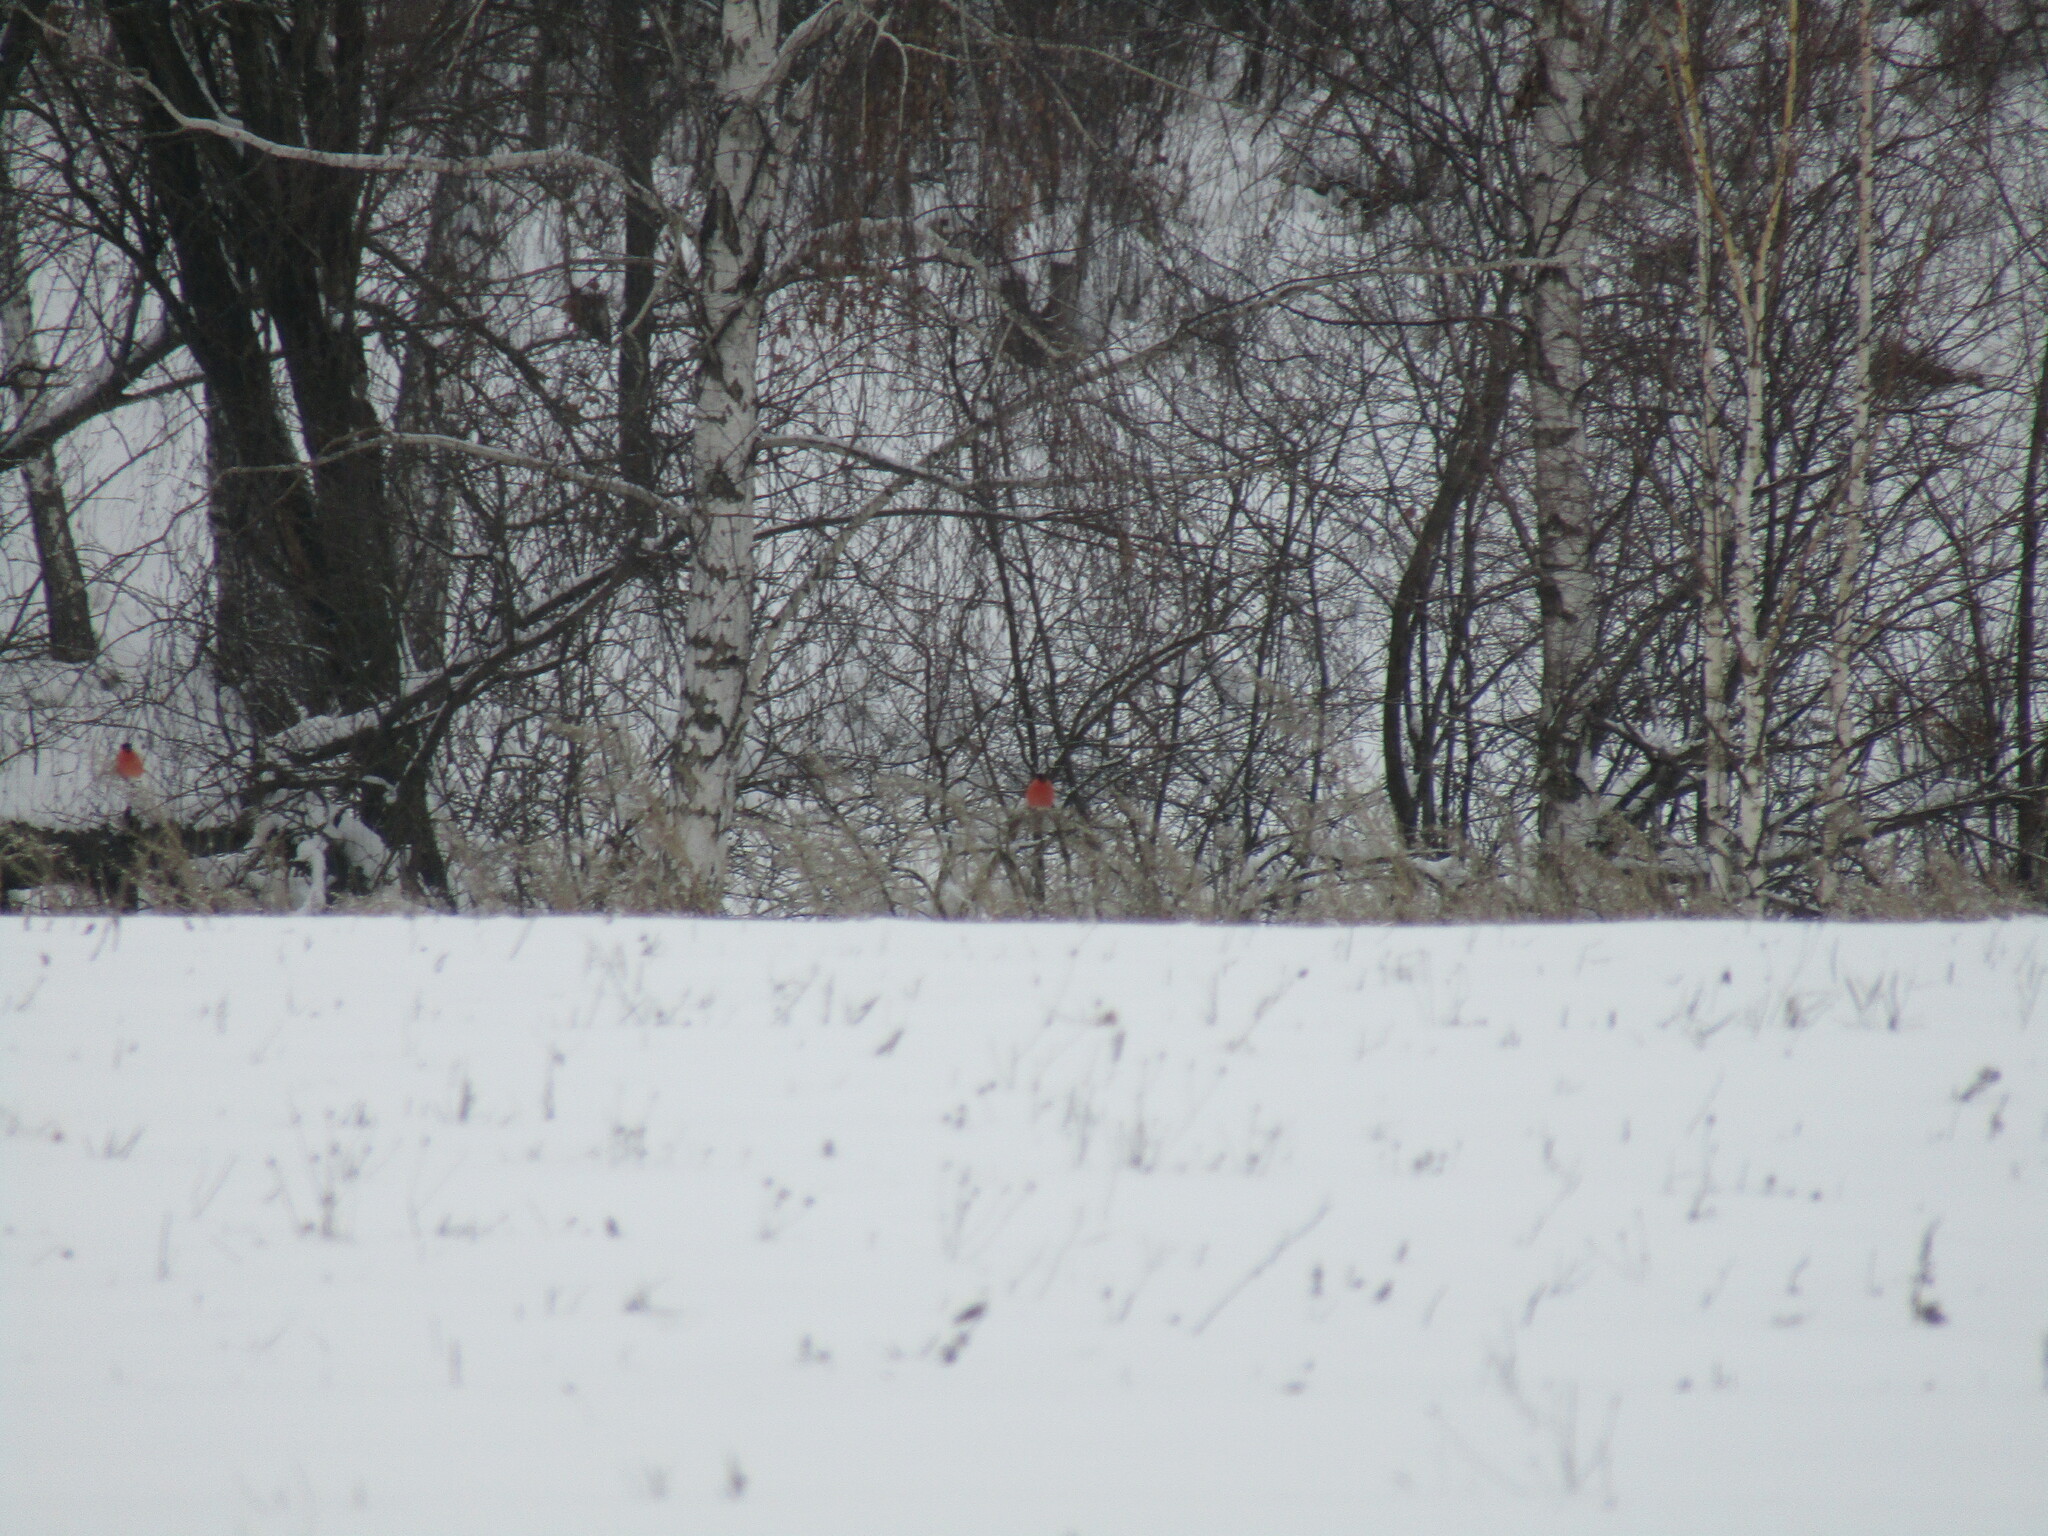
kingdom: Animalia
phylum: Chordata
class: Aves
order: Passeriformes
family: Fringillidae
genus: Pyrrhula
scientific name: Pyrrhula pyrrhula
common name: Eurasian bullfinch
